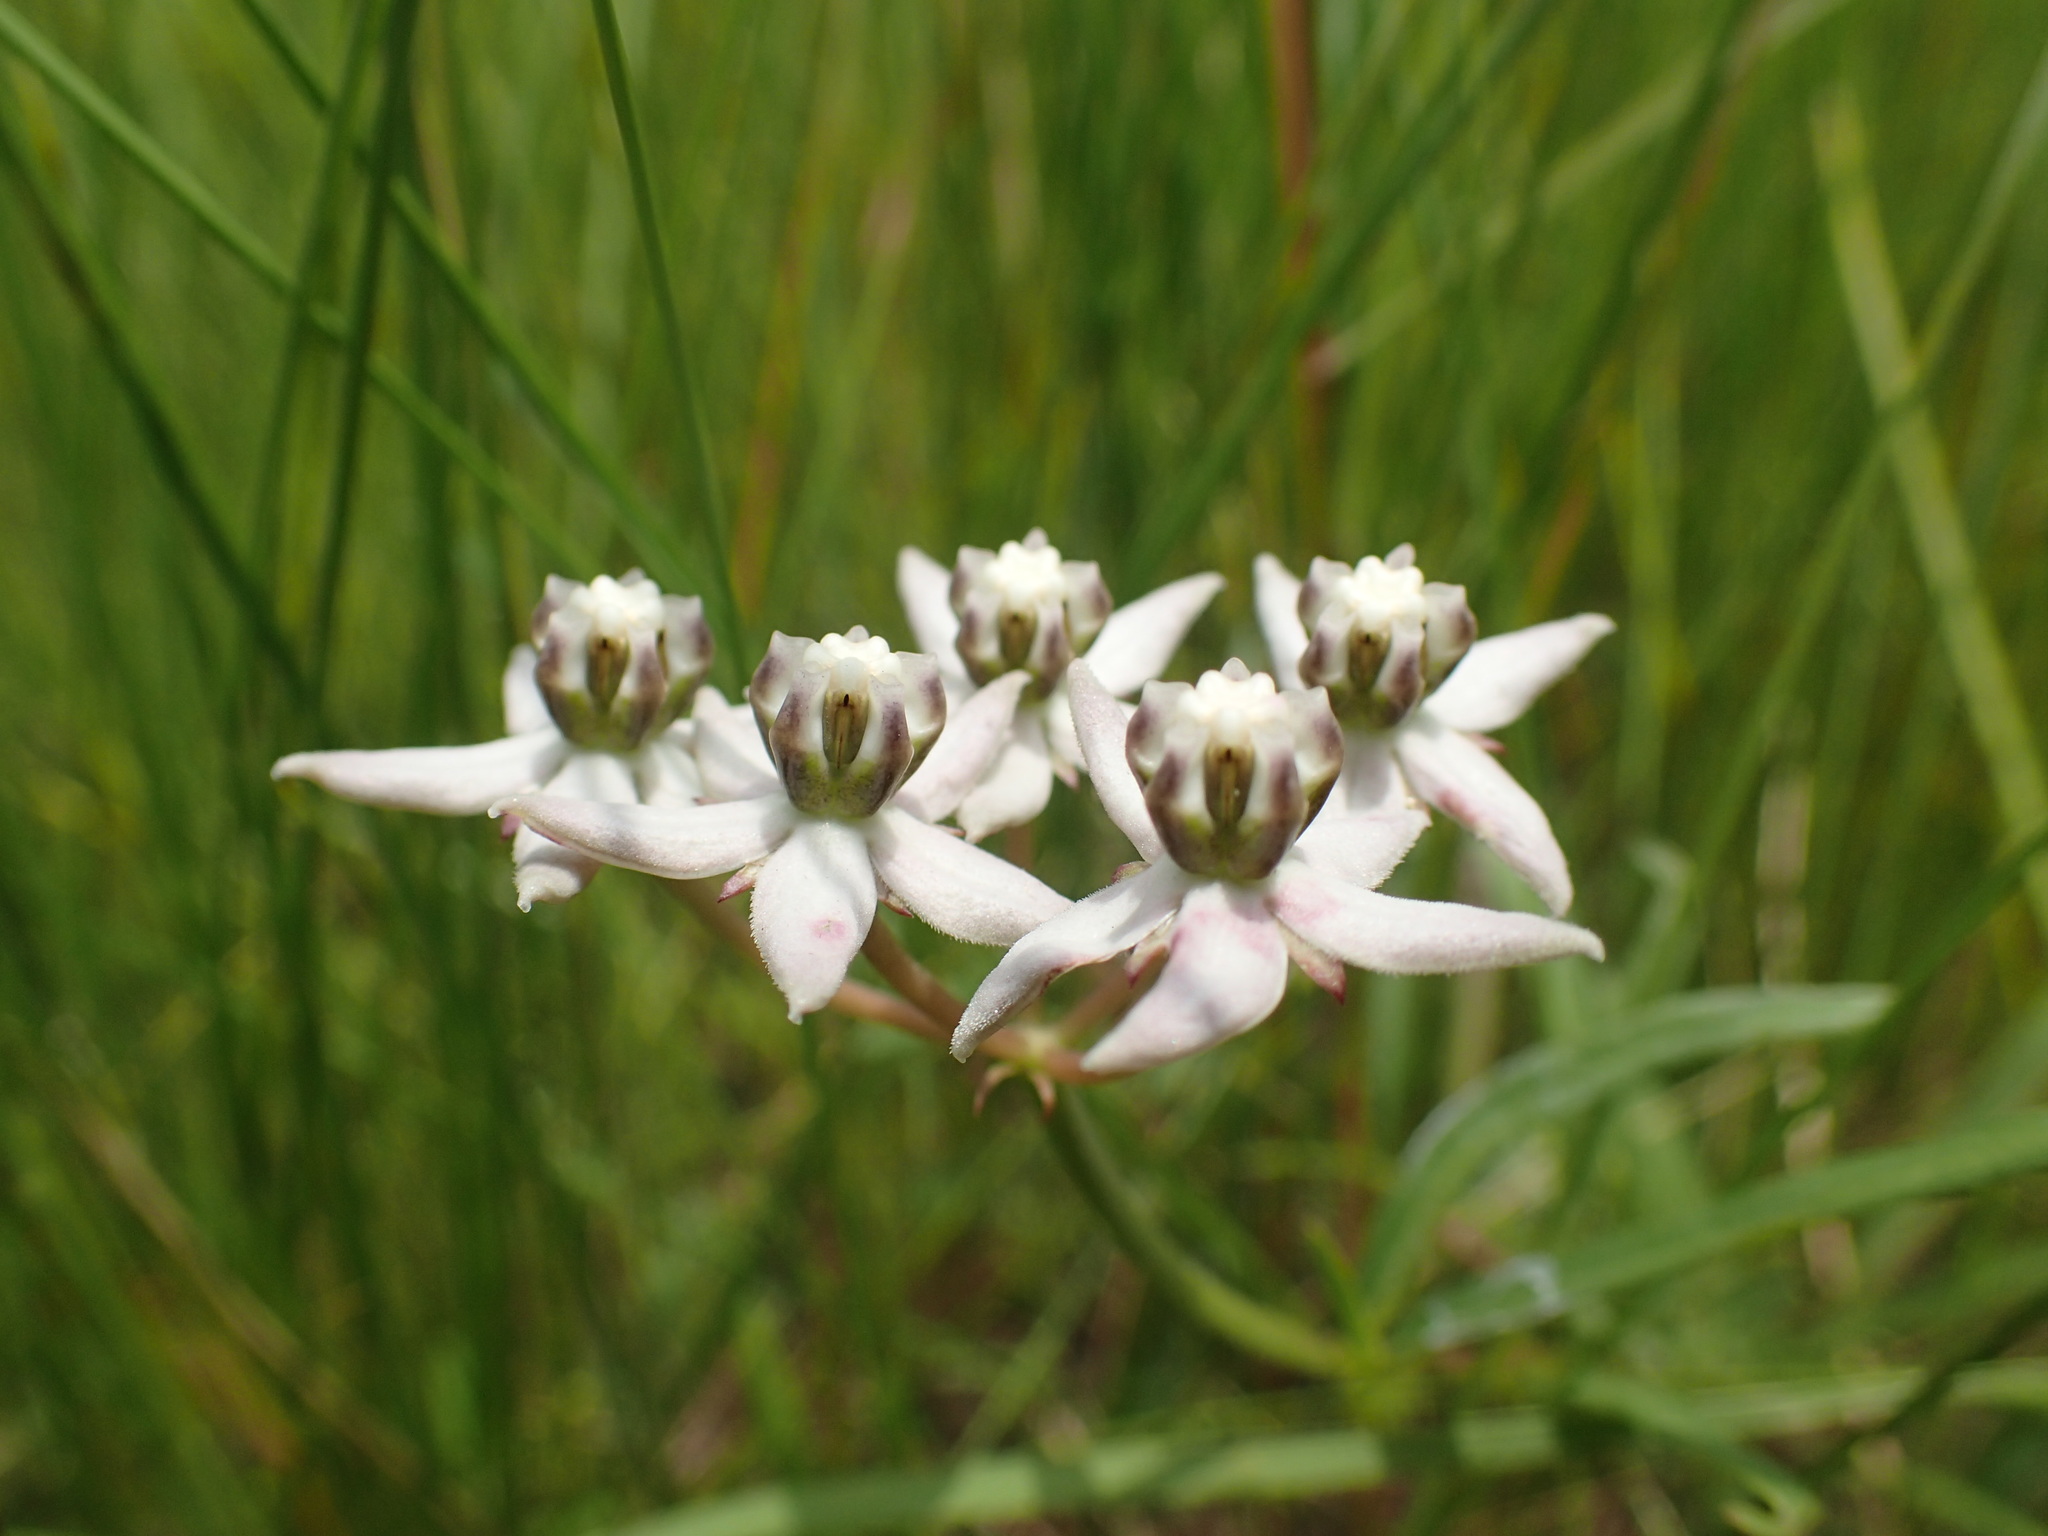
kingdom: Plantae
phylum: Tracheophyta
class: Magnoliopsida
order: Gentianales
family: Apocynaceae
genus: Asclepias
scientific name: Asclepias brevicuspis
